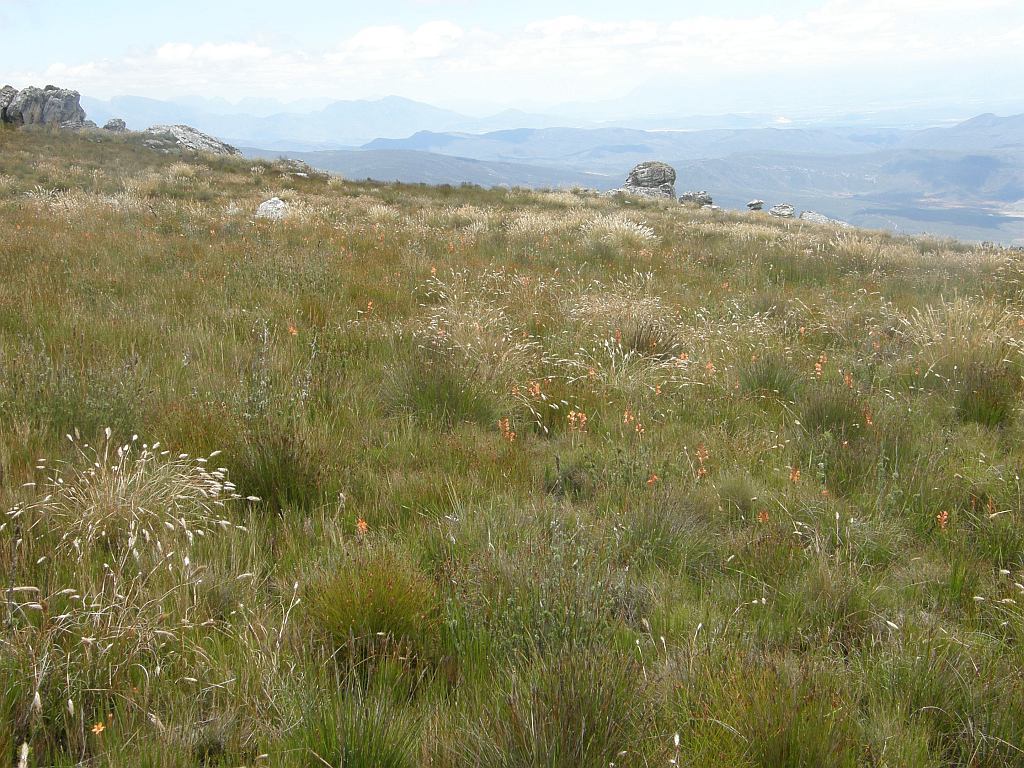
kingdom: Plantae
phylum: Tracheophyta
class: Liliopsida
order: Asparagales
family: Iridaceae
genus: Watsonia
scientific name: Watsonia minima
